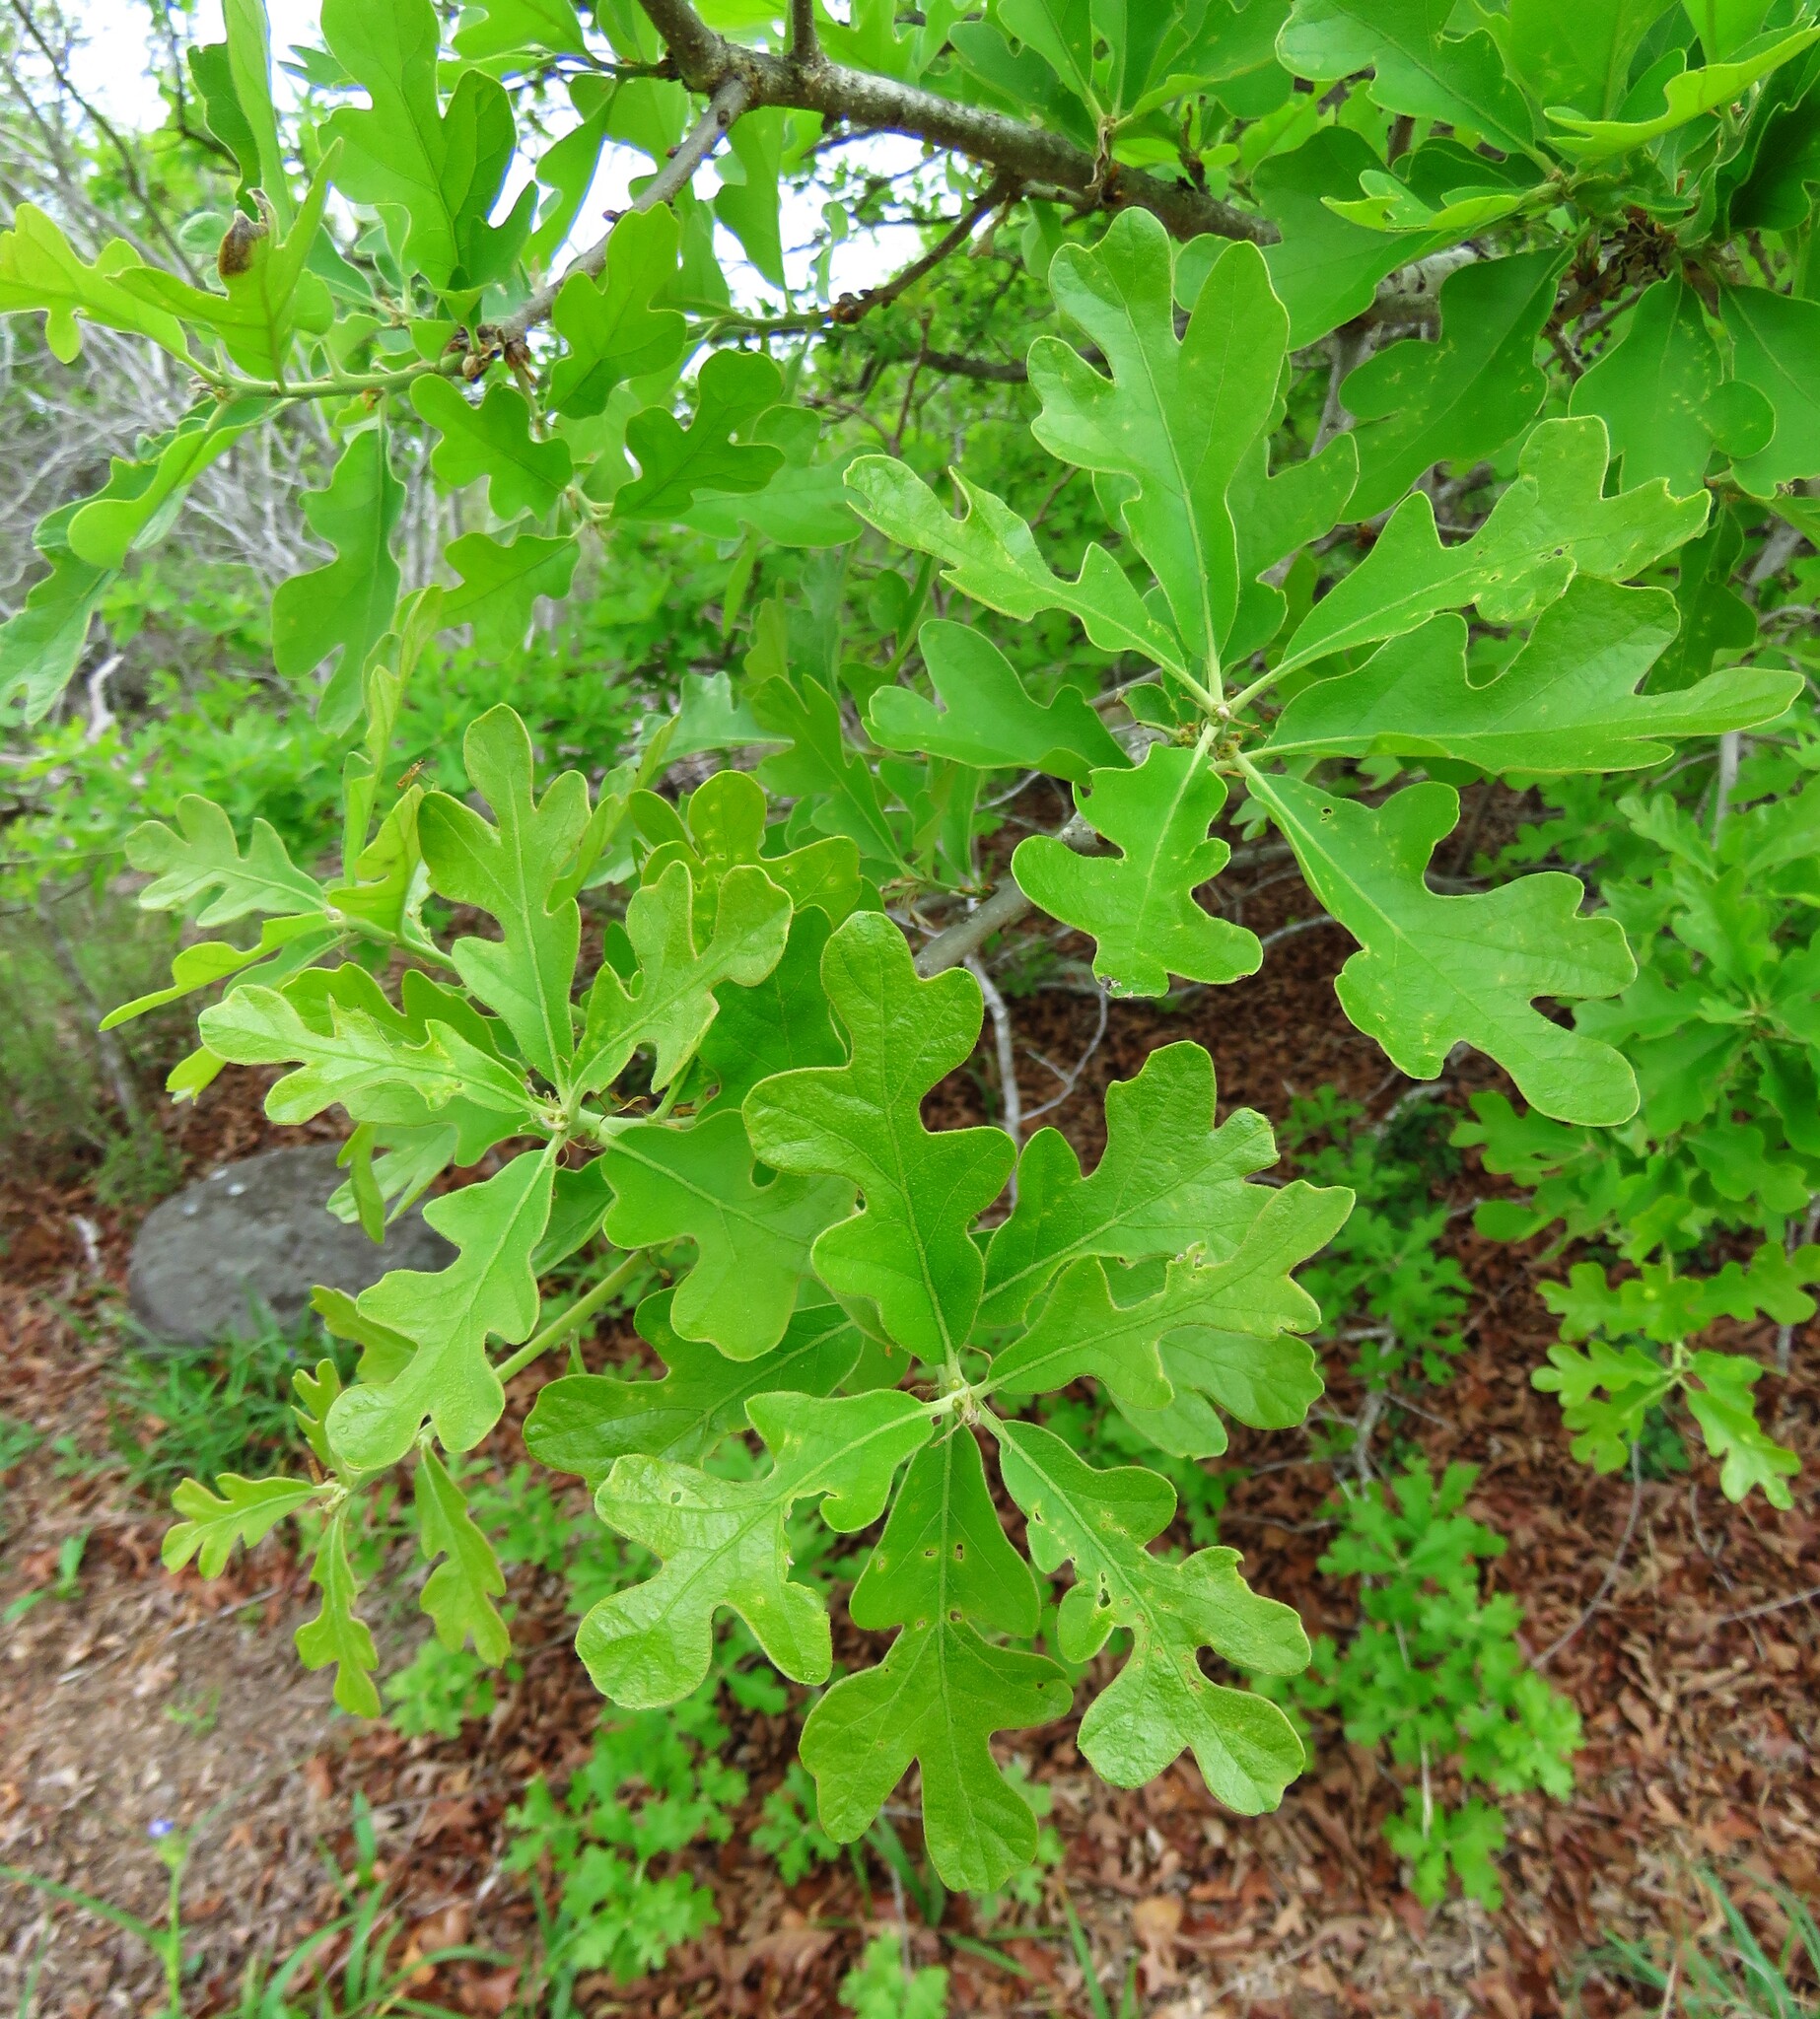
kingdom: Plantae
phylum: Tracheophyta
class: Magnoliopsida
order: Fagales
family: Fagaceae
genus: Quercus
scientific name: Quercus stellata
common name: Post oak
